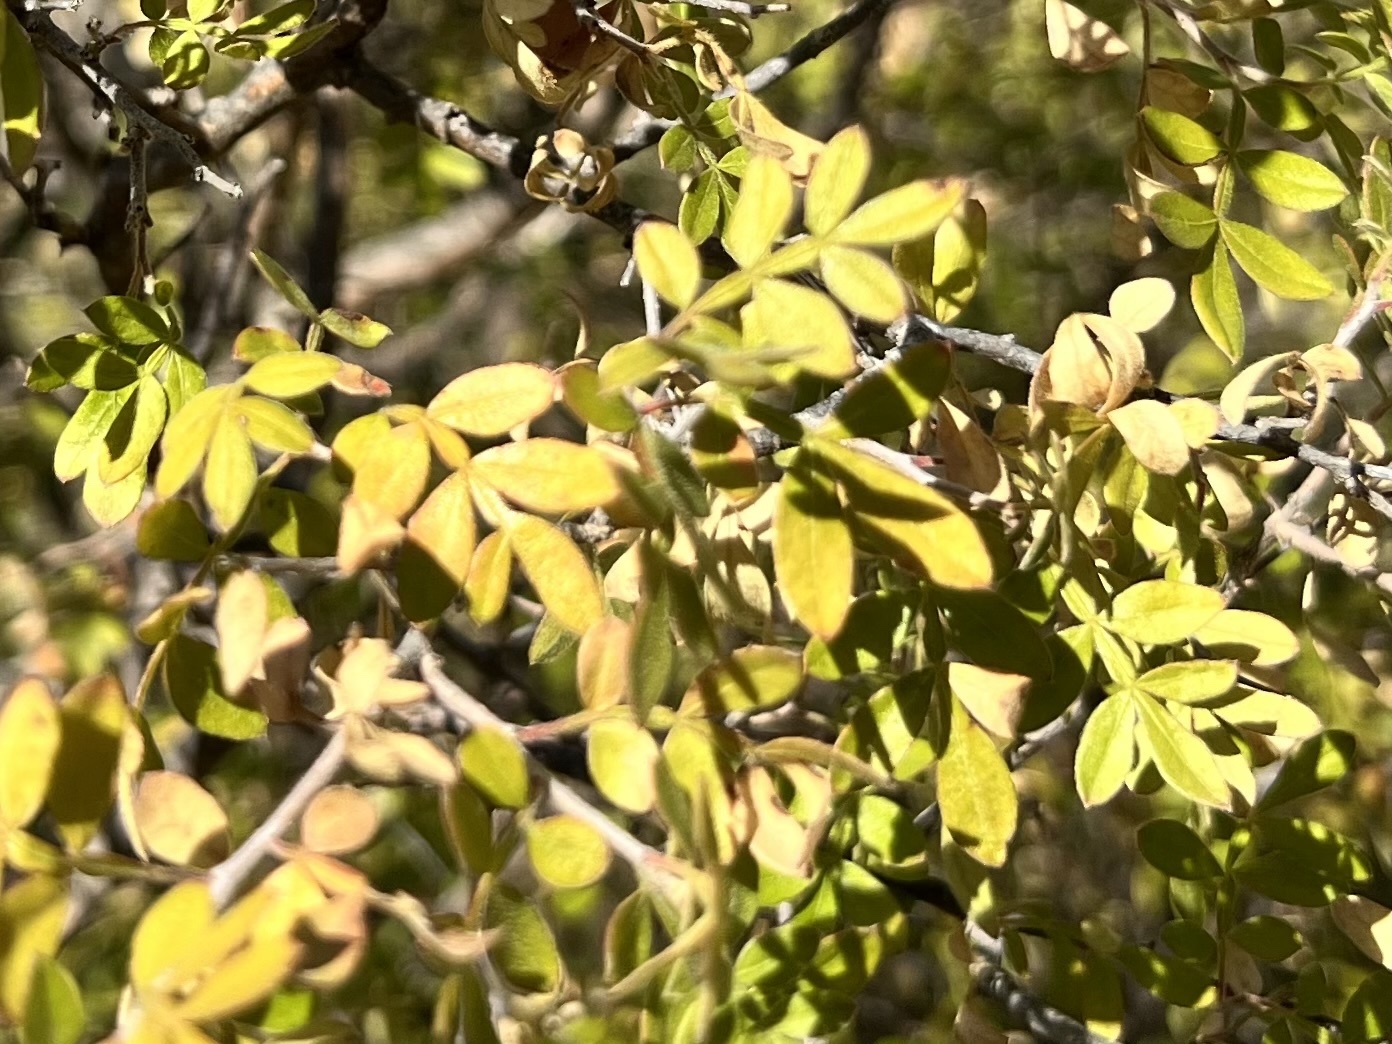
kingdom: Plantae
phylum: Tracheophyta
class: Magnoliopsida
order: Sapindales
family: Anacardiaceae
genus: Rhus
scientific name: Rhus microphylla
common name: Desert sumac
